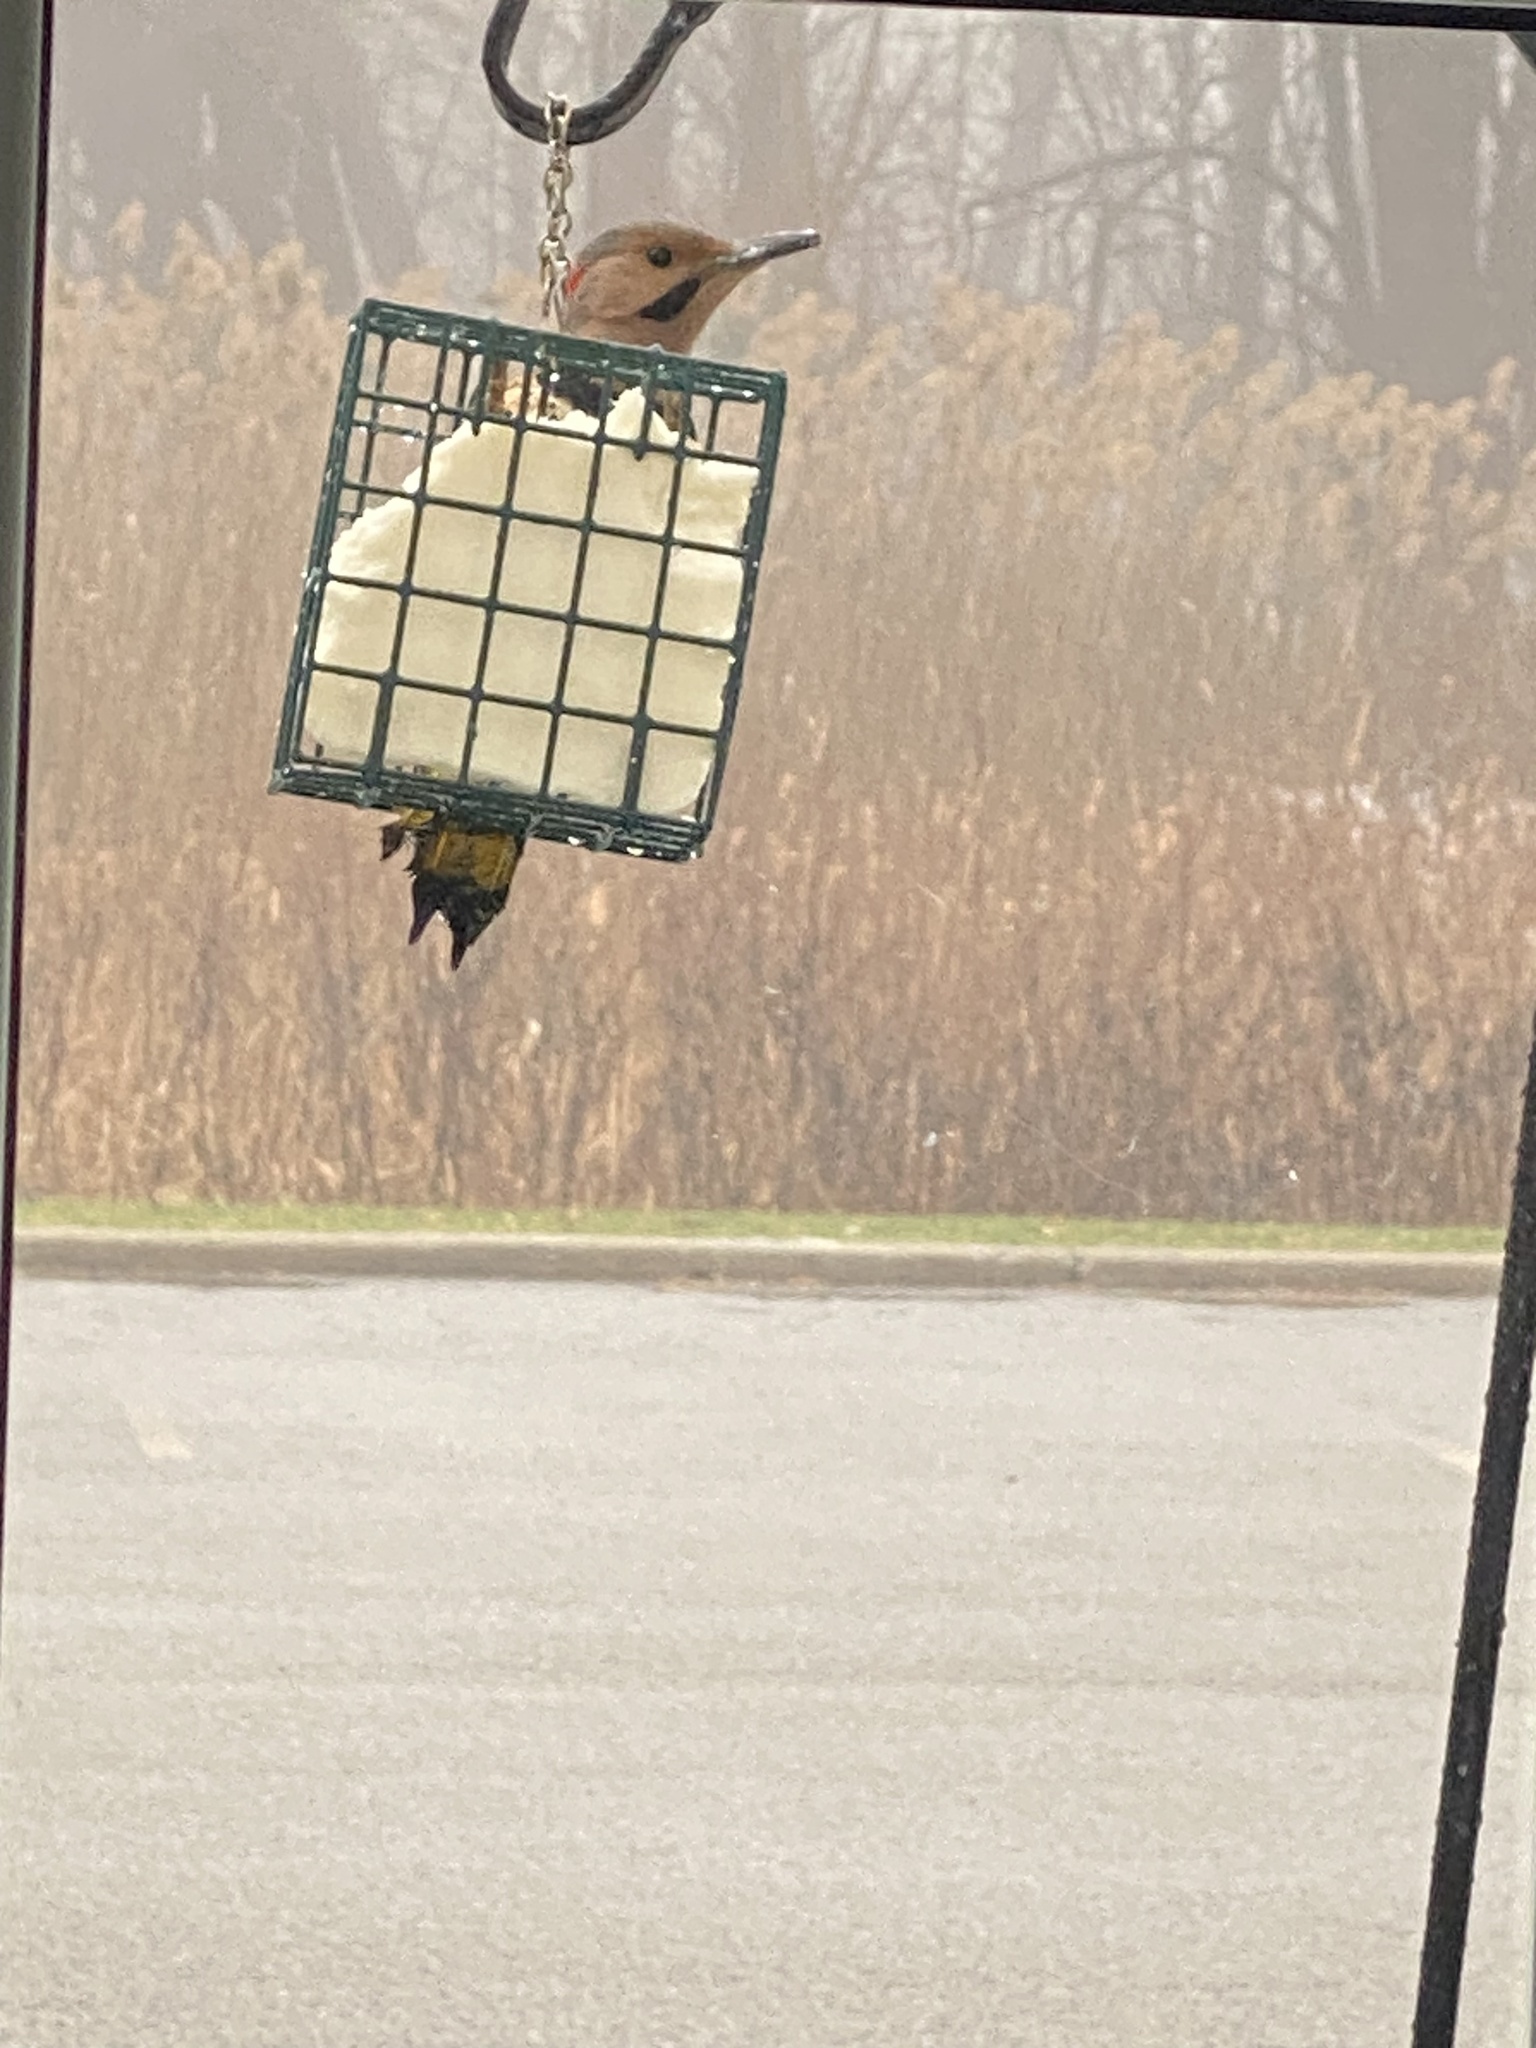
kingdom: Animalia
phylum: Chordata
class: Aves
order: Piciformes
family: Picidae
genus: Colaptes
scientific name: Colaptes auratus
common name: Northern flicker
